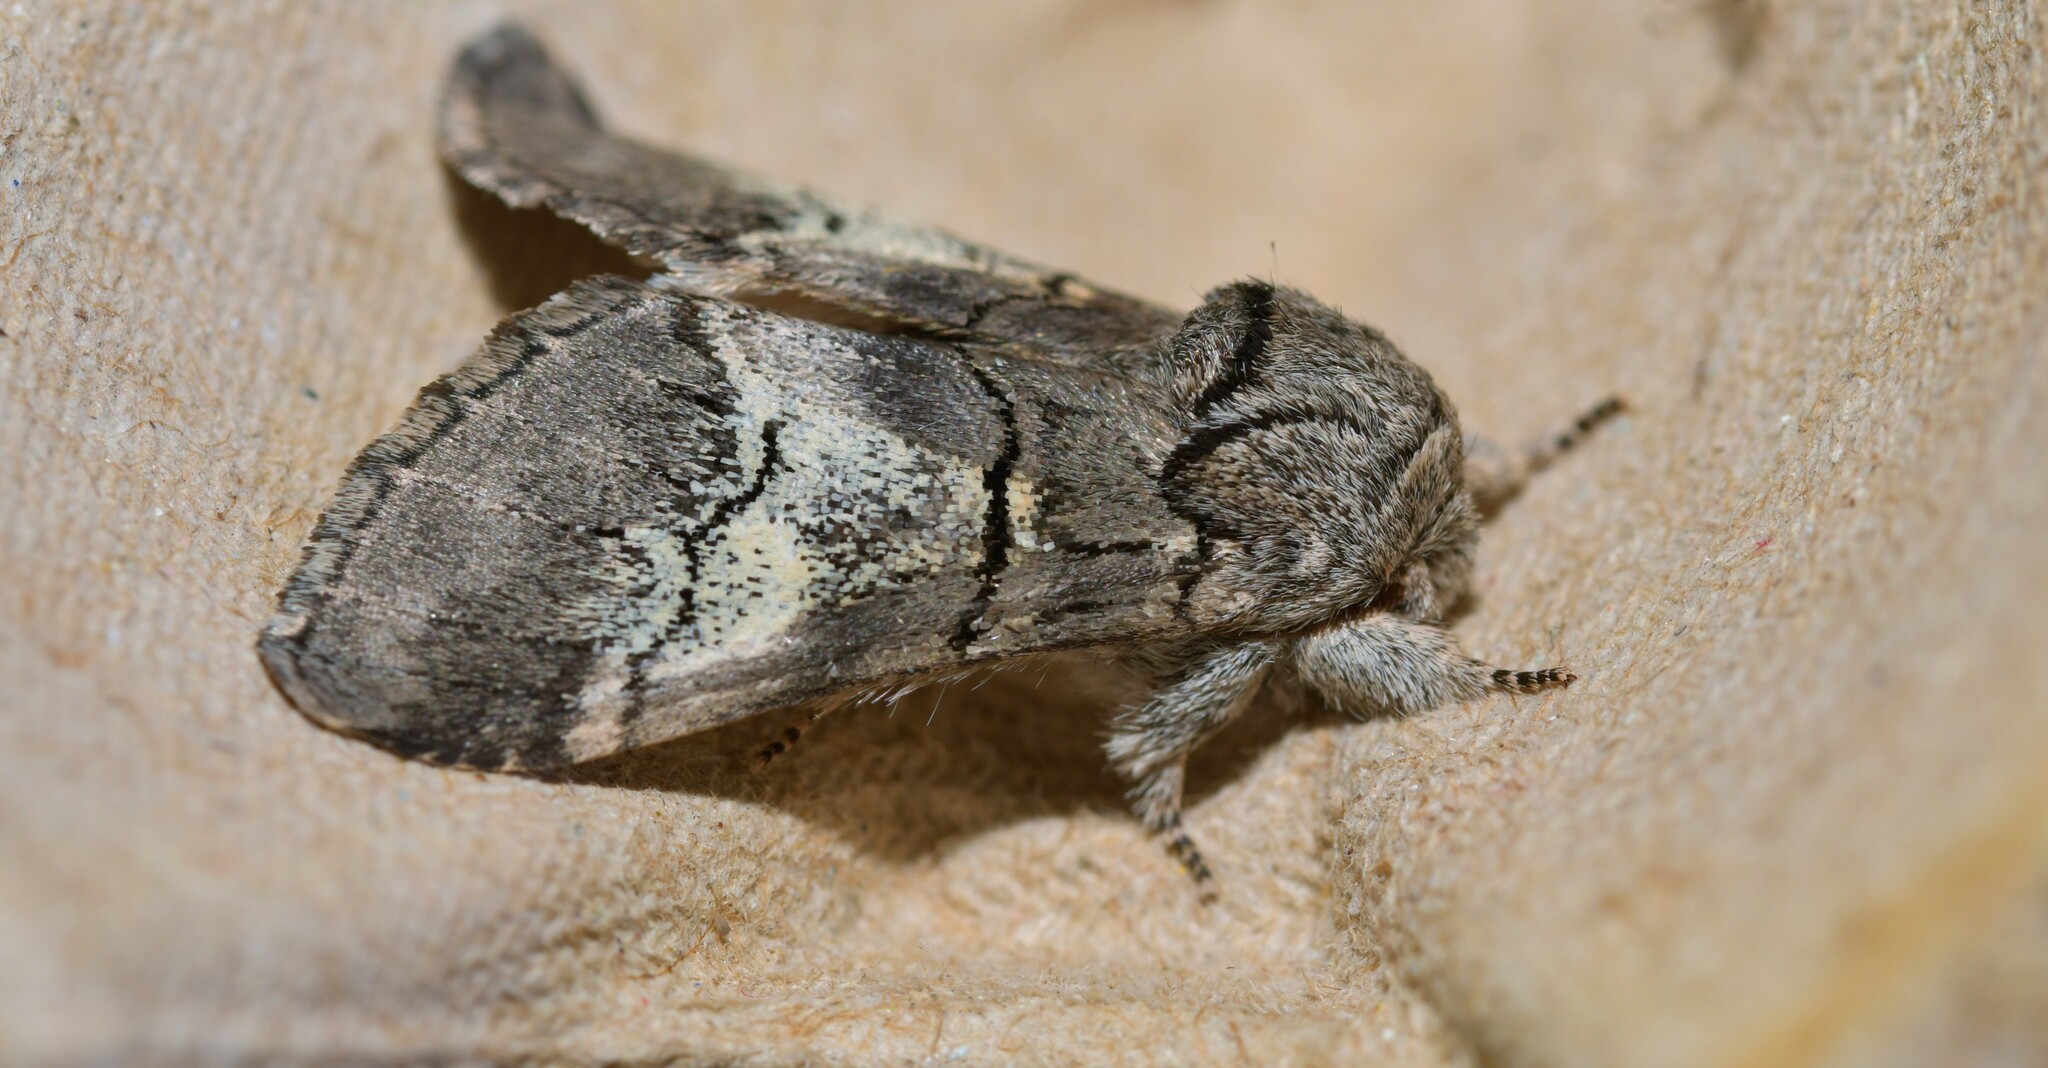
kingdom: Animalia
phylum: Arthropoda
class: Insecta
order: Lepidoptera
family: Notodontidae
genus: Drymonia
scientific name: Drymonia querna
